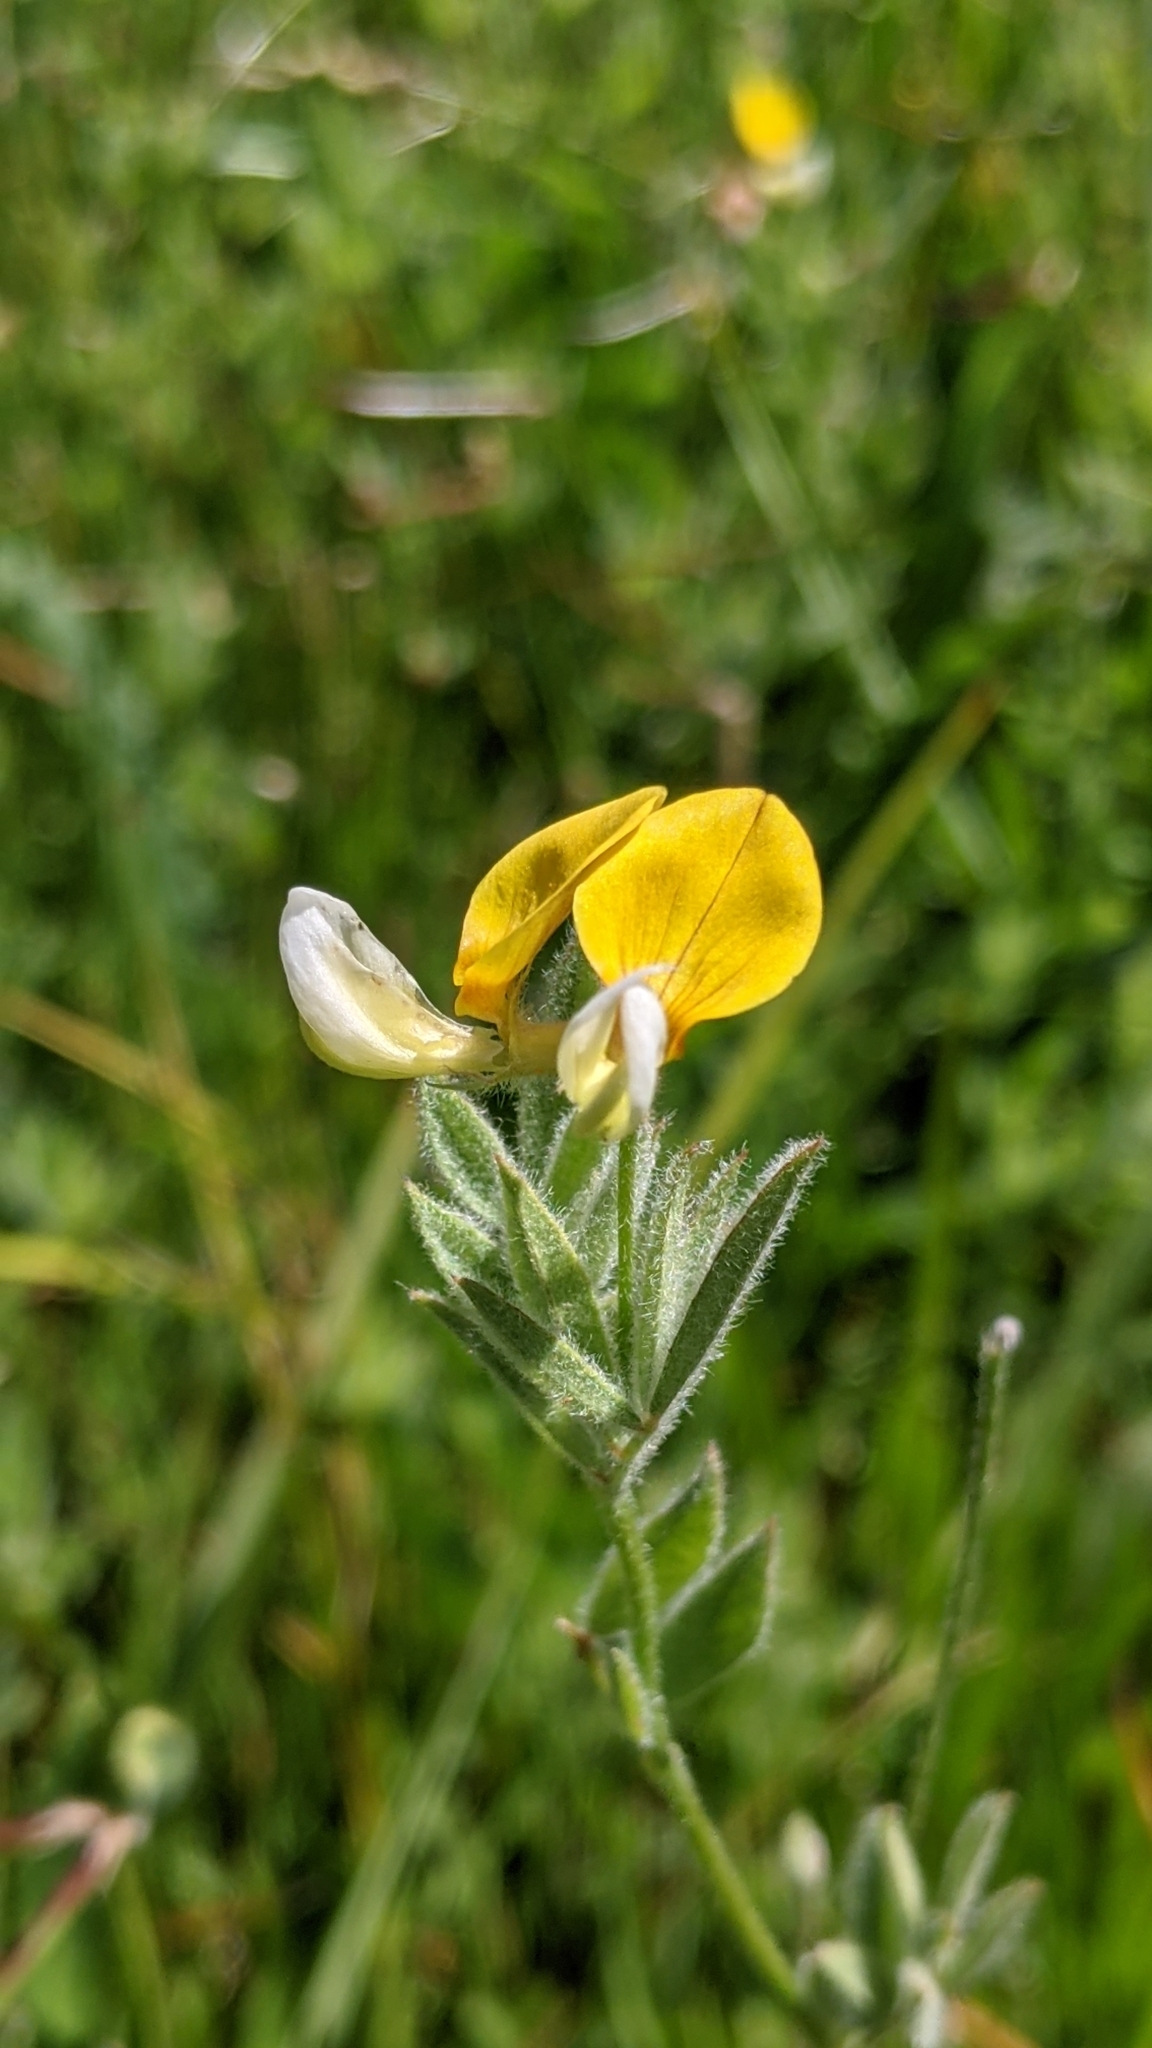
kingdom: Plantae
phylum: Tracheophyta
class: Magnoliopsida
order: Fabales
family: Fabaceae
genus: Hosackia
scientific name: Hosackia oblongifolia
